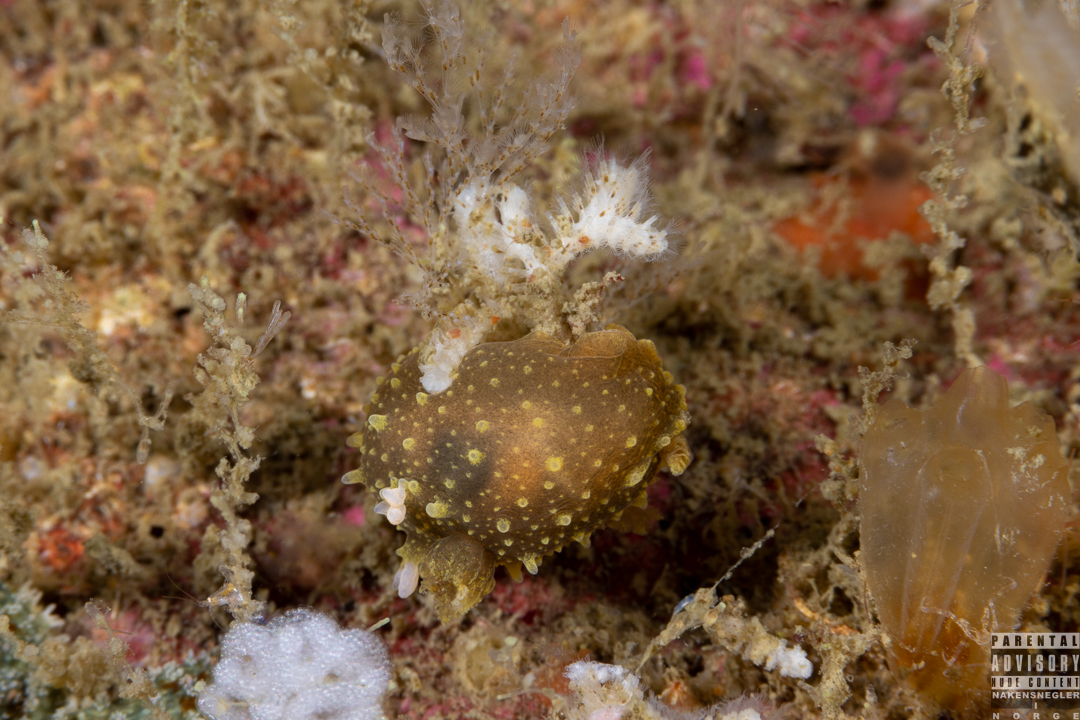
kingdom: Animalia
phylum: Mollusca
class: Gastropoda
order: Nudibranchia
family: Polyceridae
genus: Palio
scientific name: Palio dubia
